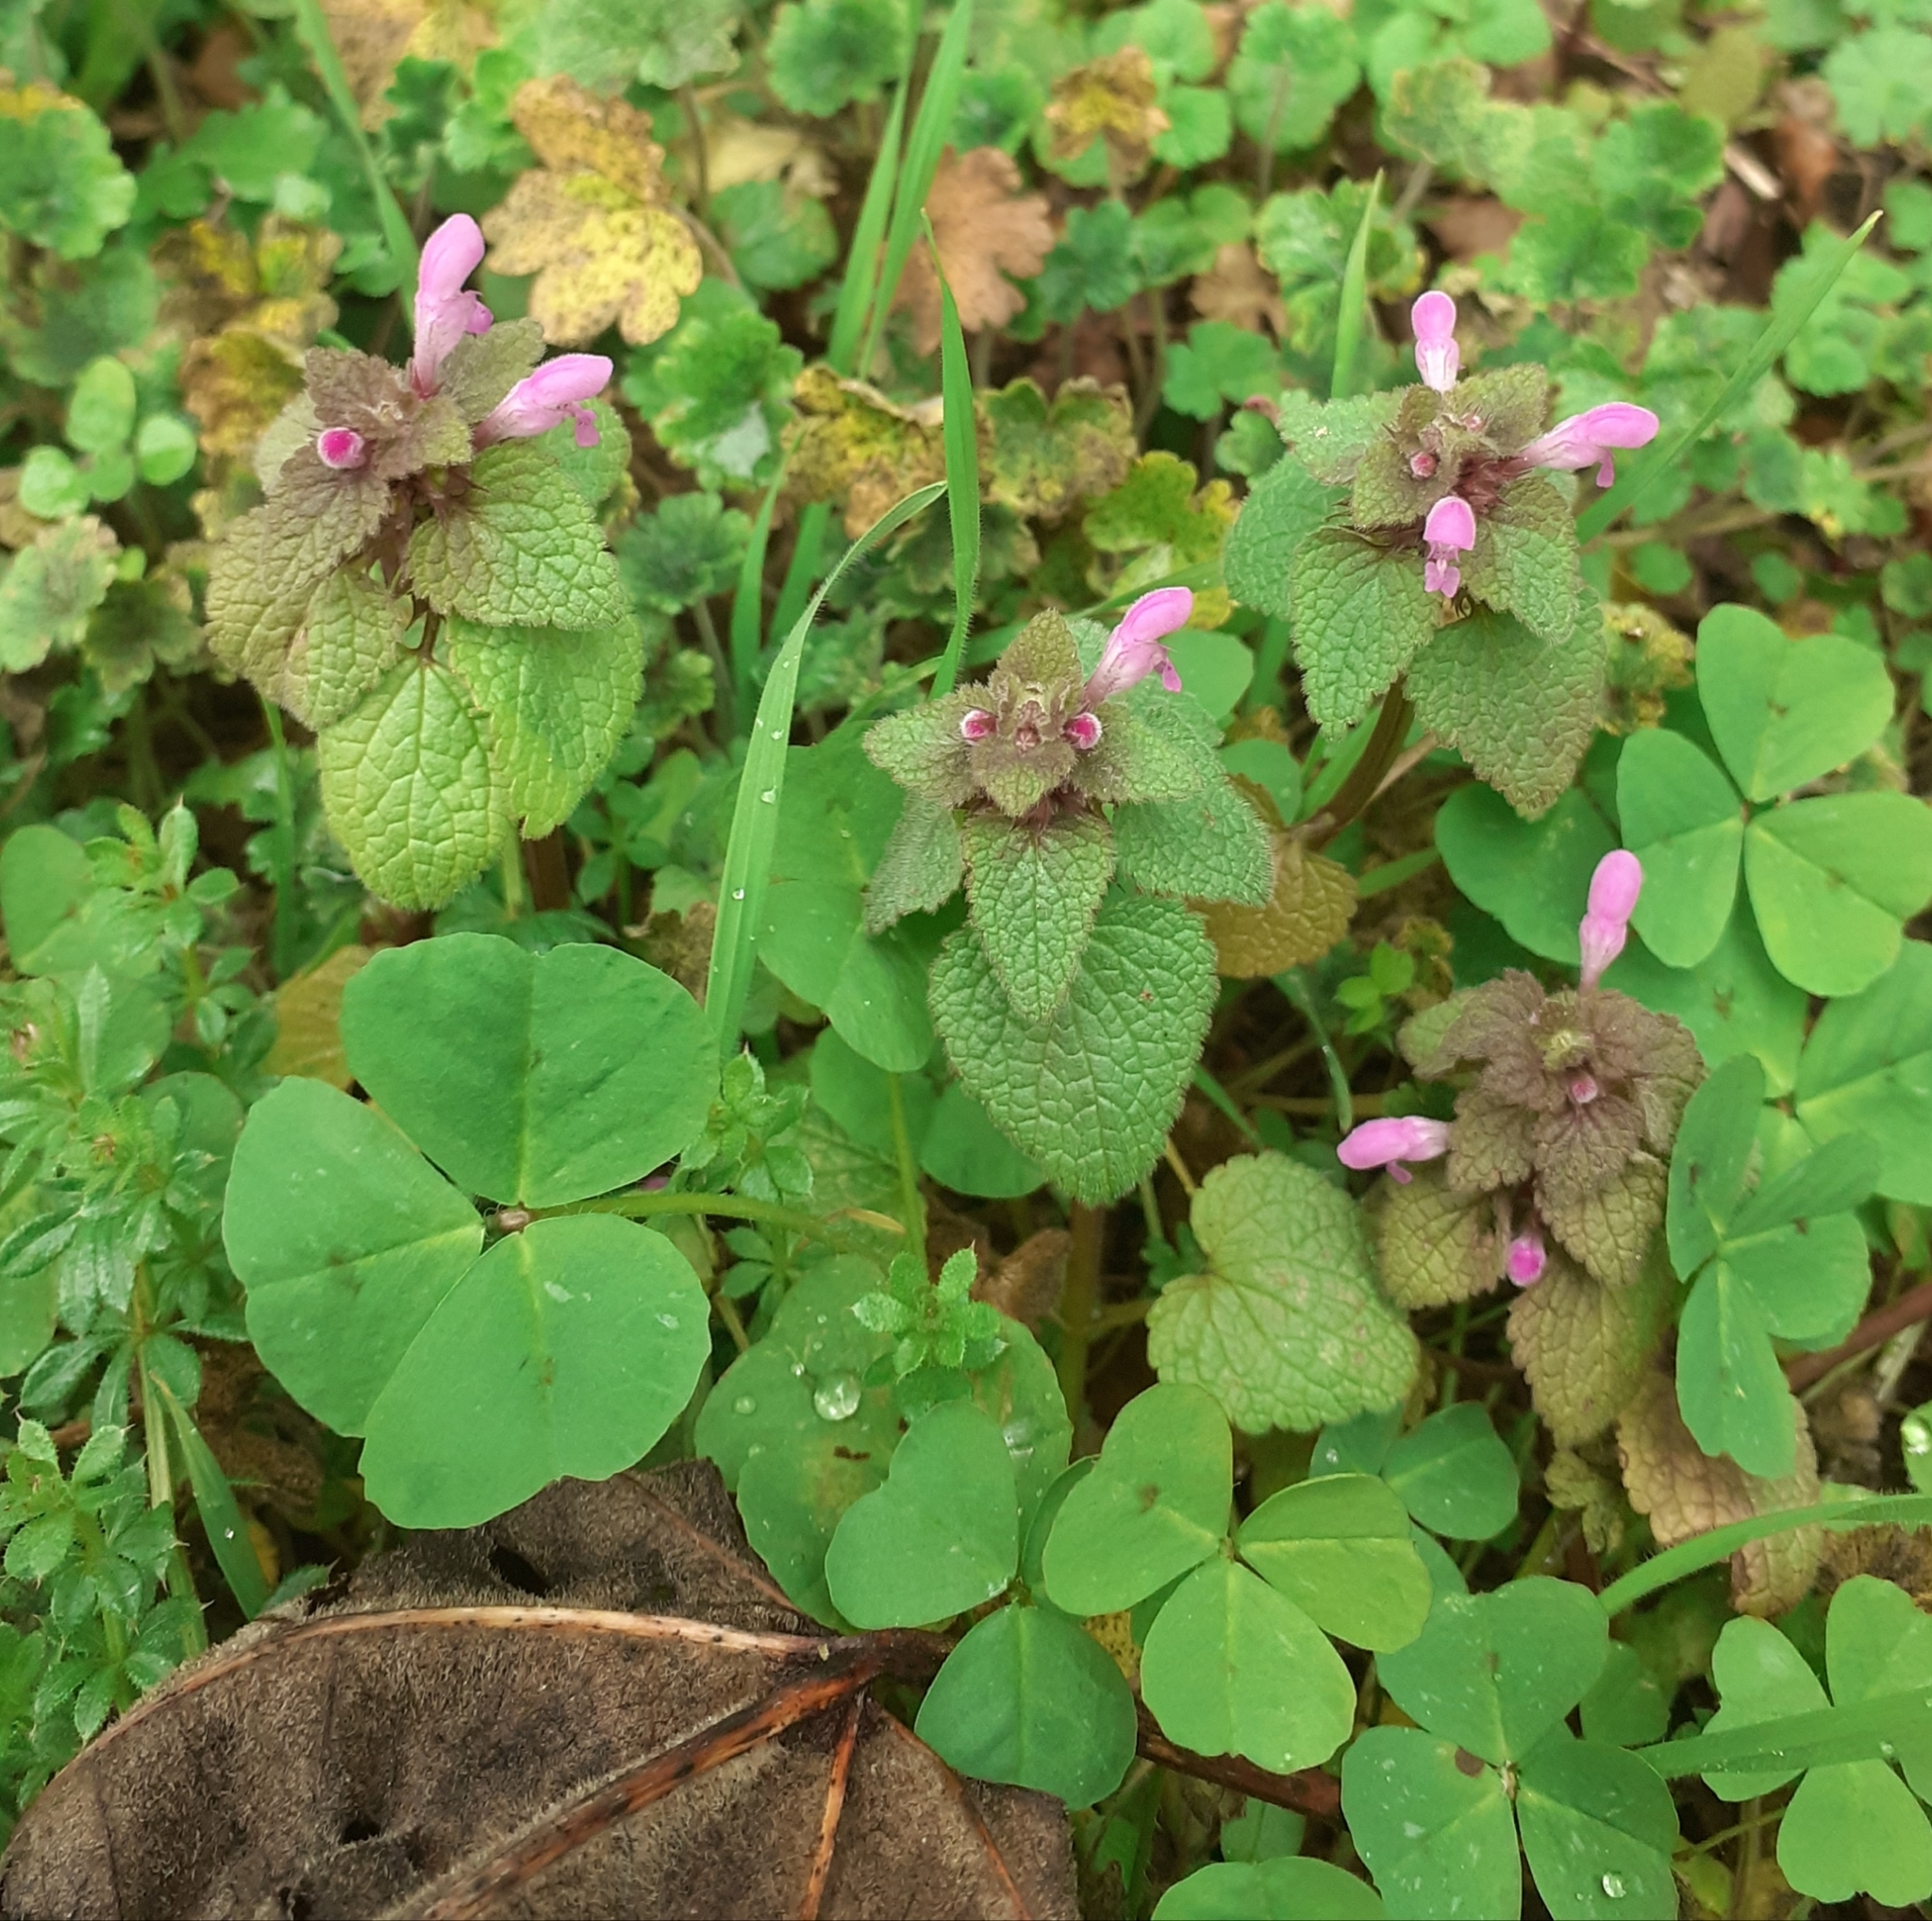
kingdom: Plantae
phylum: Tracheophyta
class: Magnoliopsida
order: Lamiales
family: Lamiaceae
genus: Lamium
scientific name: Lamium purpureum
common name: Red dead-nettle
